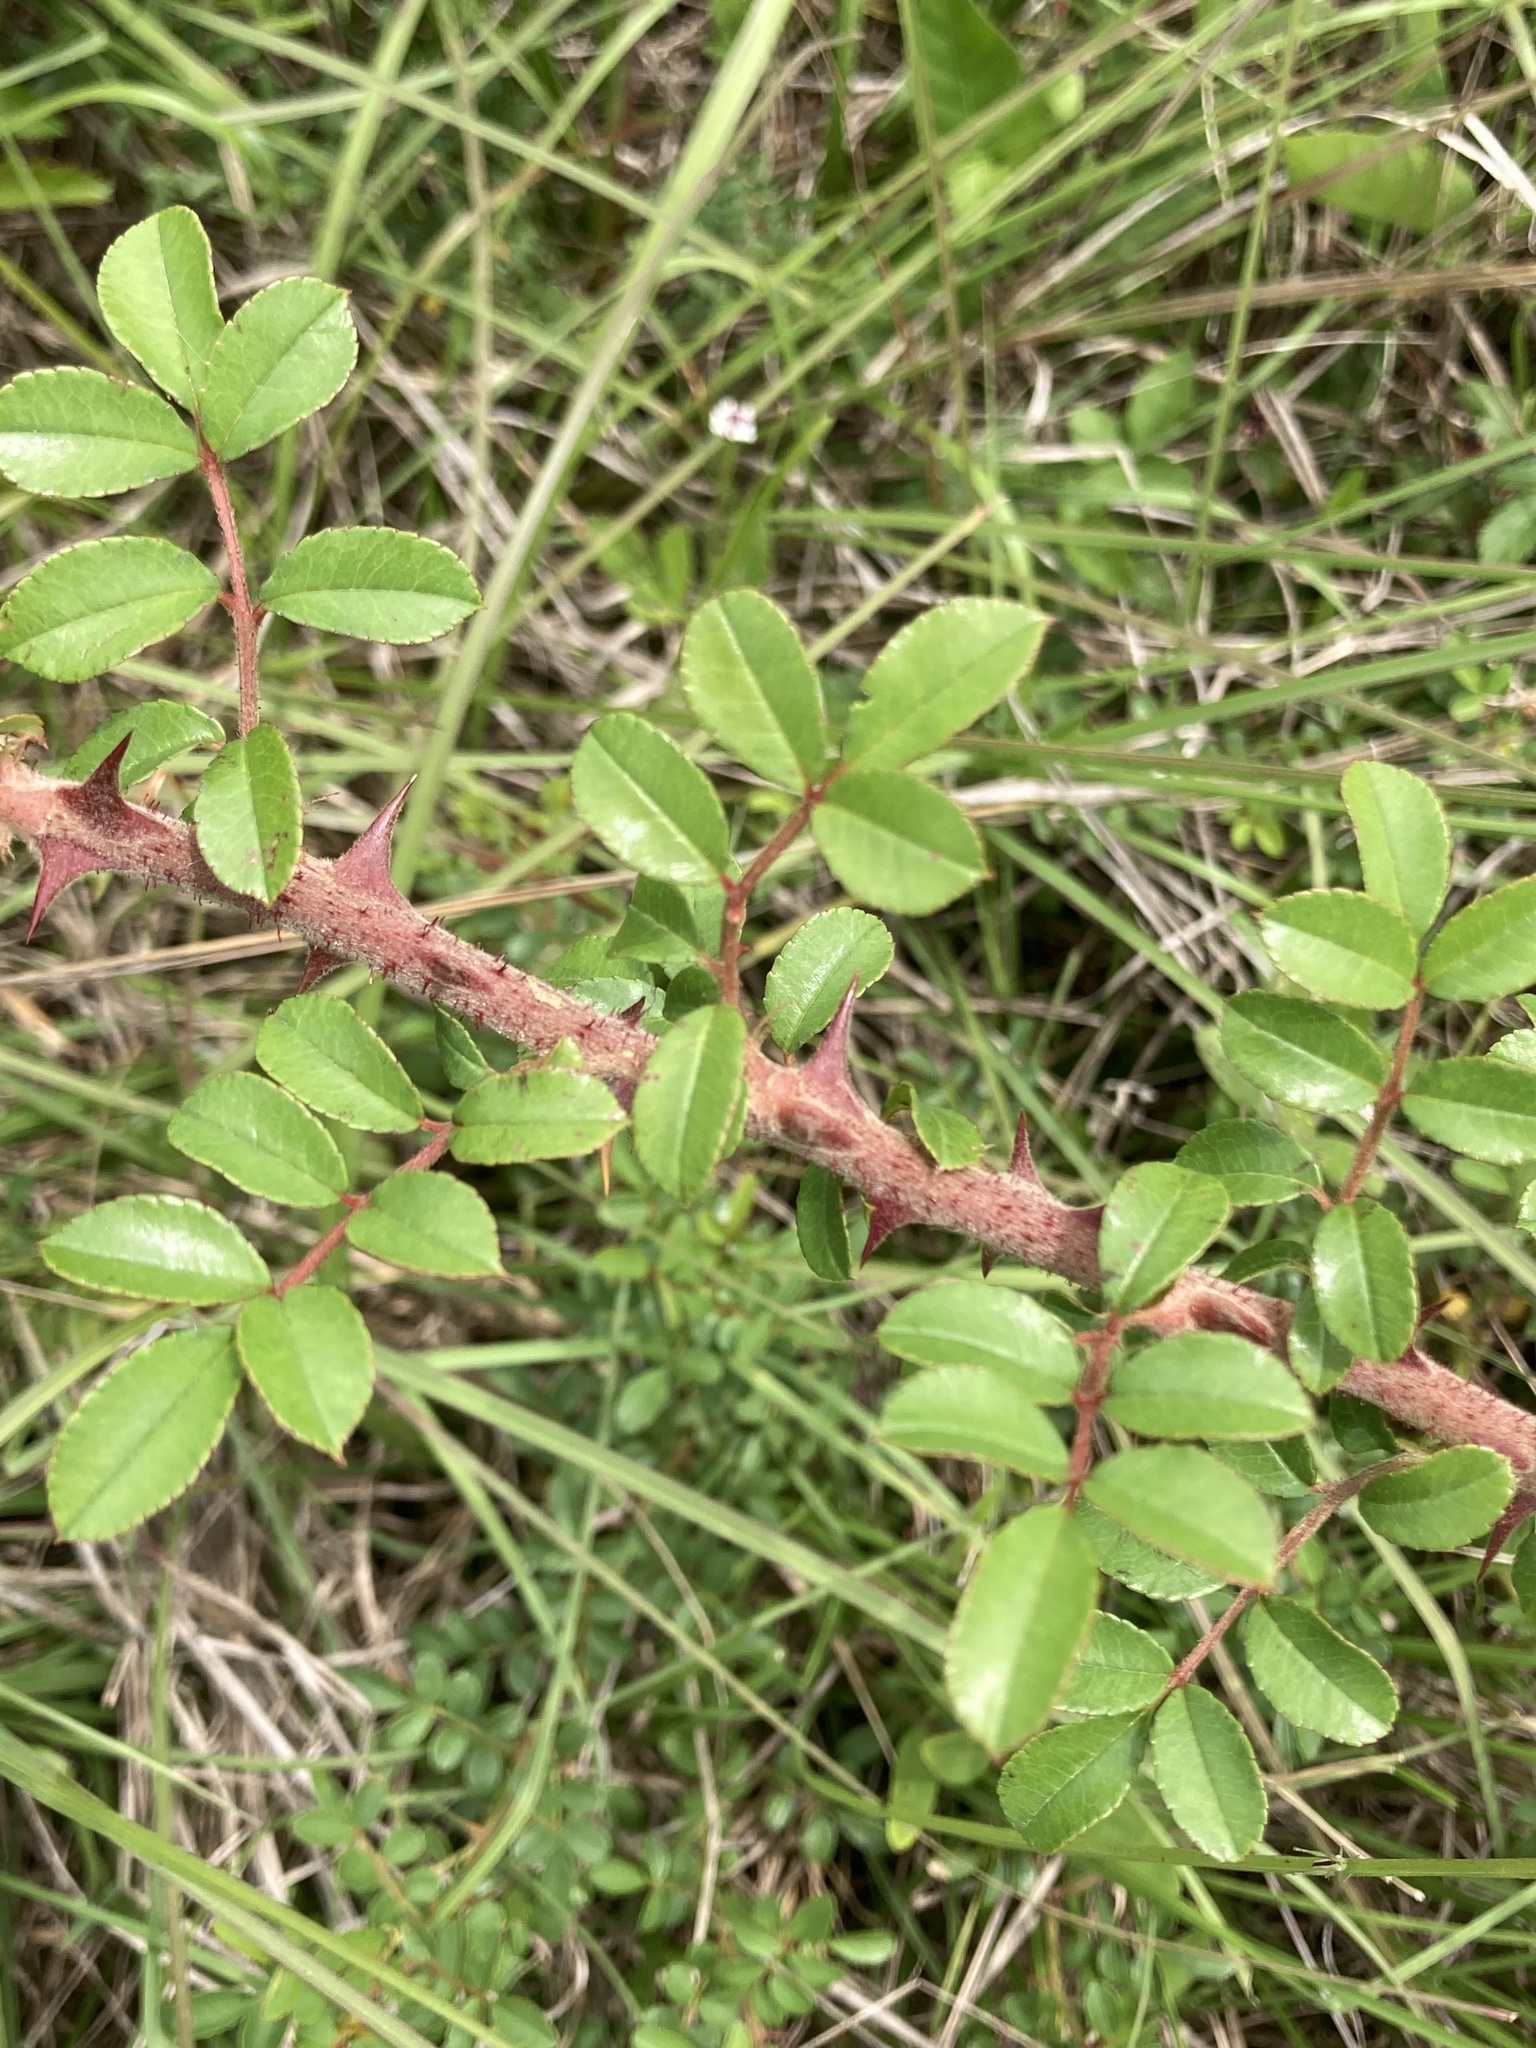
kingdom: Plantae
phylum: Tracheophyta
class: Magnoliopsida
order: Rosales
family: Rosaceae
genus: Rosa
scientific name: Rosa bracteata
